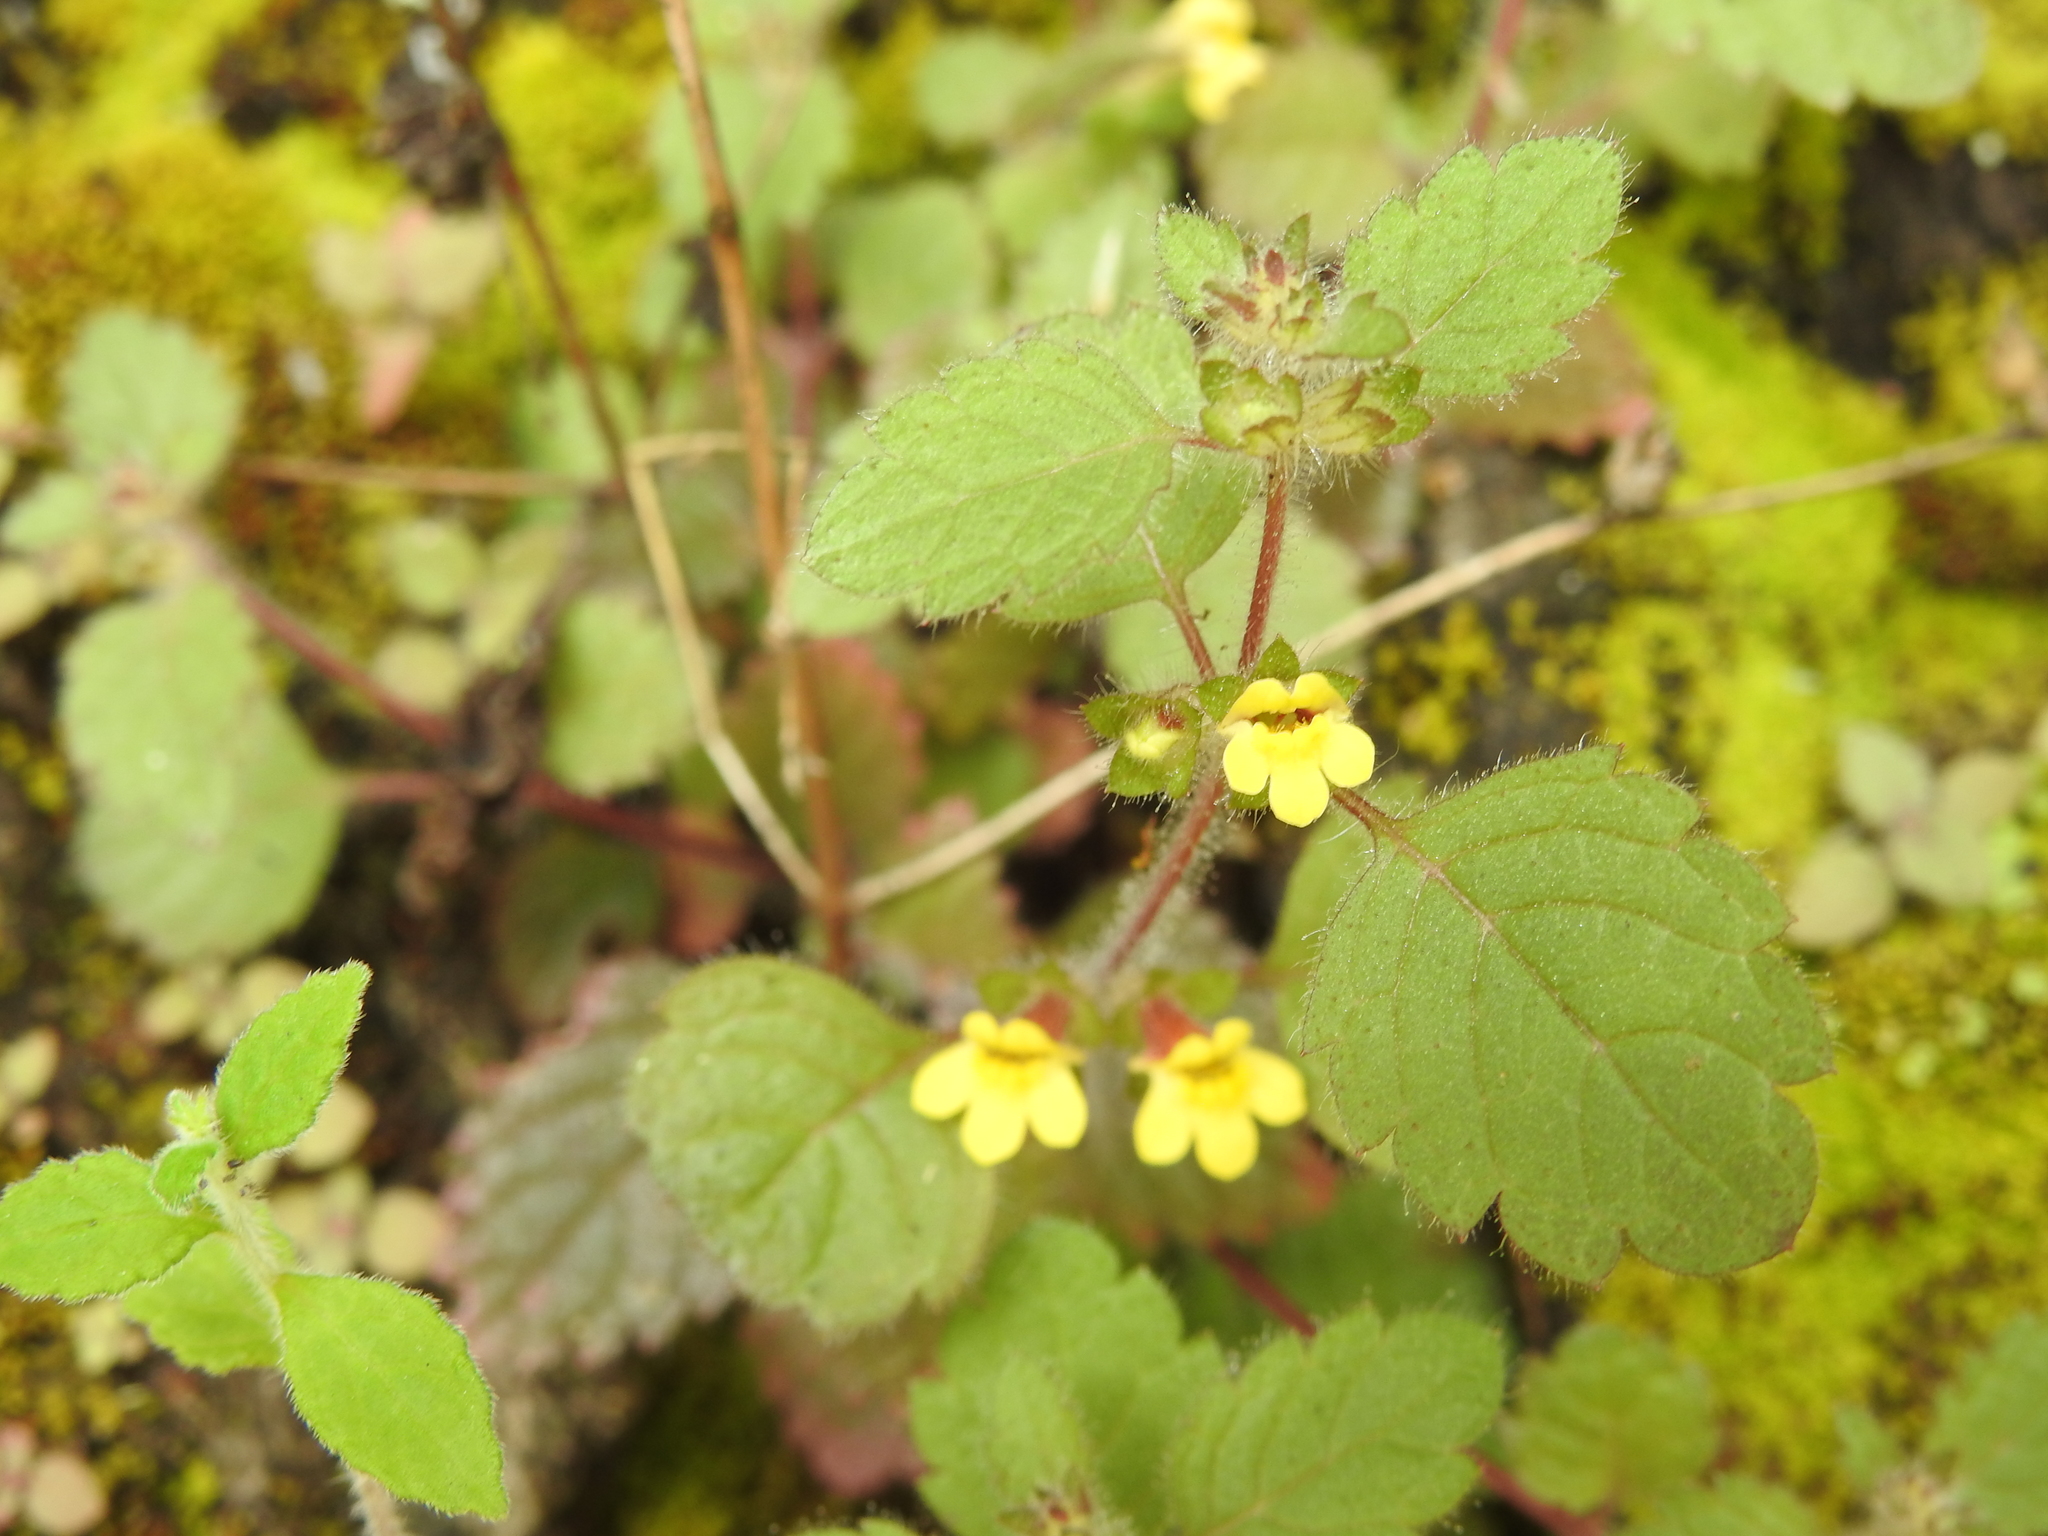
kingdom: Plantae
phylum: Tracheophyta
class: Magnoliopsida
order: Lamiales
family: Orobanchaceae
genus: Lindenbergia
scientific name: Lindenbergia muraria
